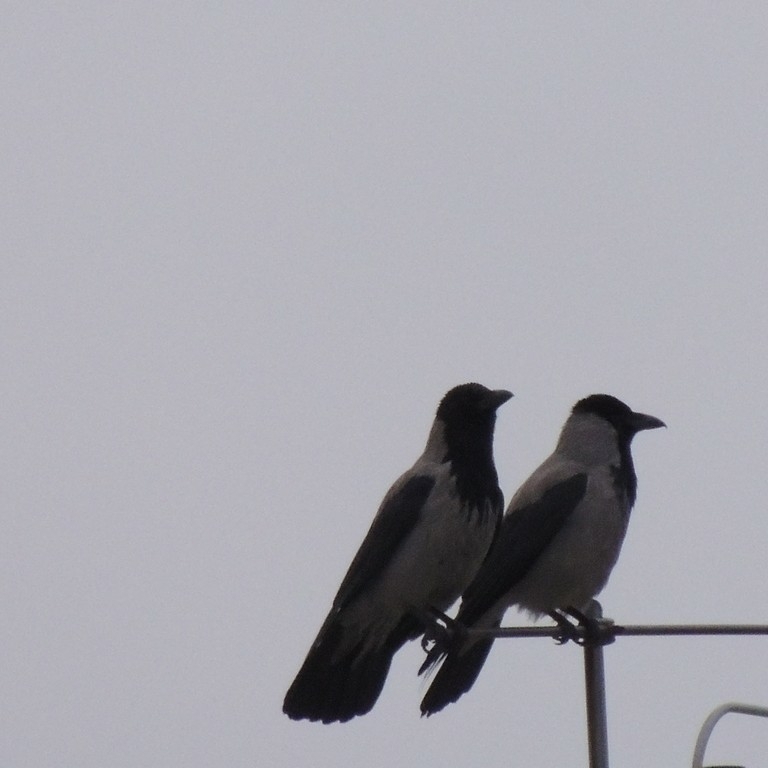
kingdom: Animalia
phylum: Chordata
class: Aves
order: Passeriformes
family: Corvidae
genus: Corvus
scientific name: Corvus cornix
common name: Hooded crow
